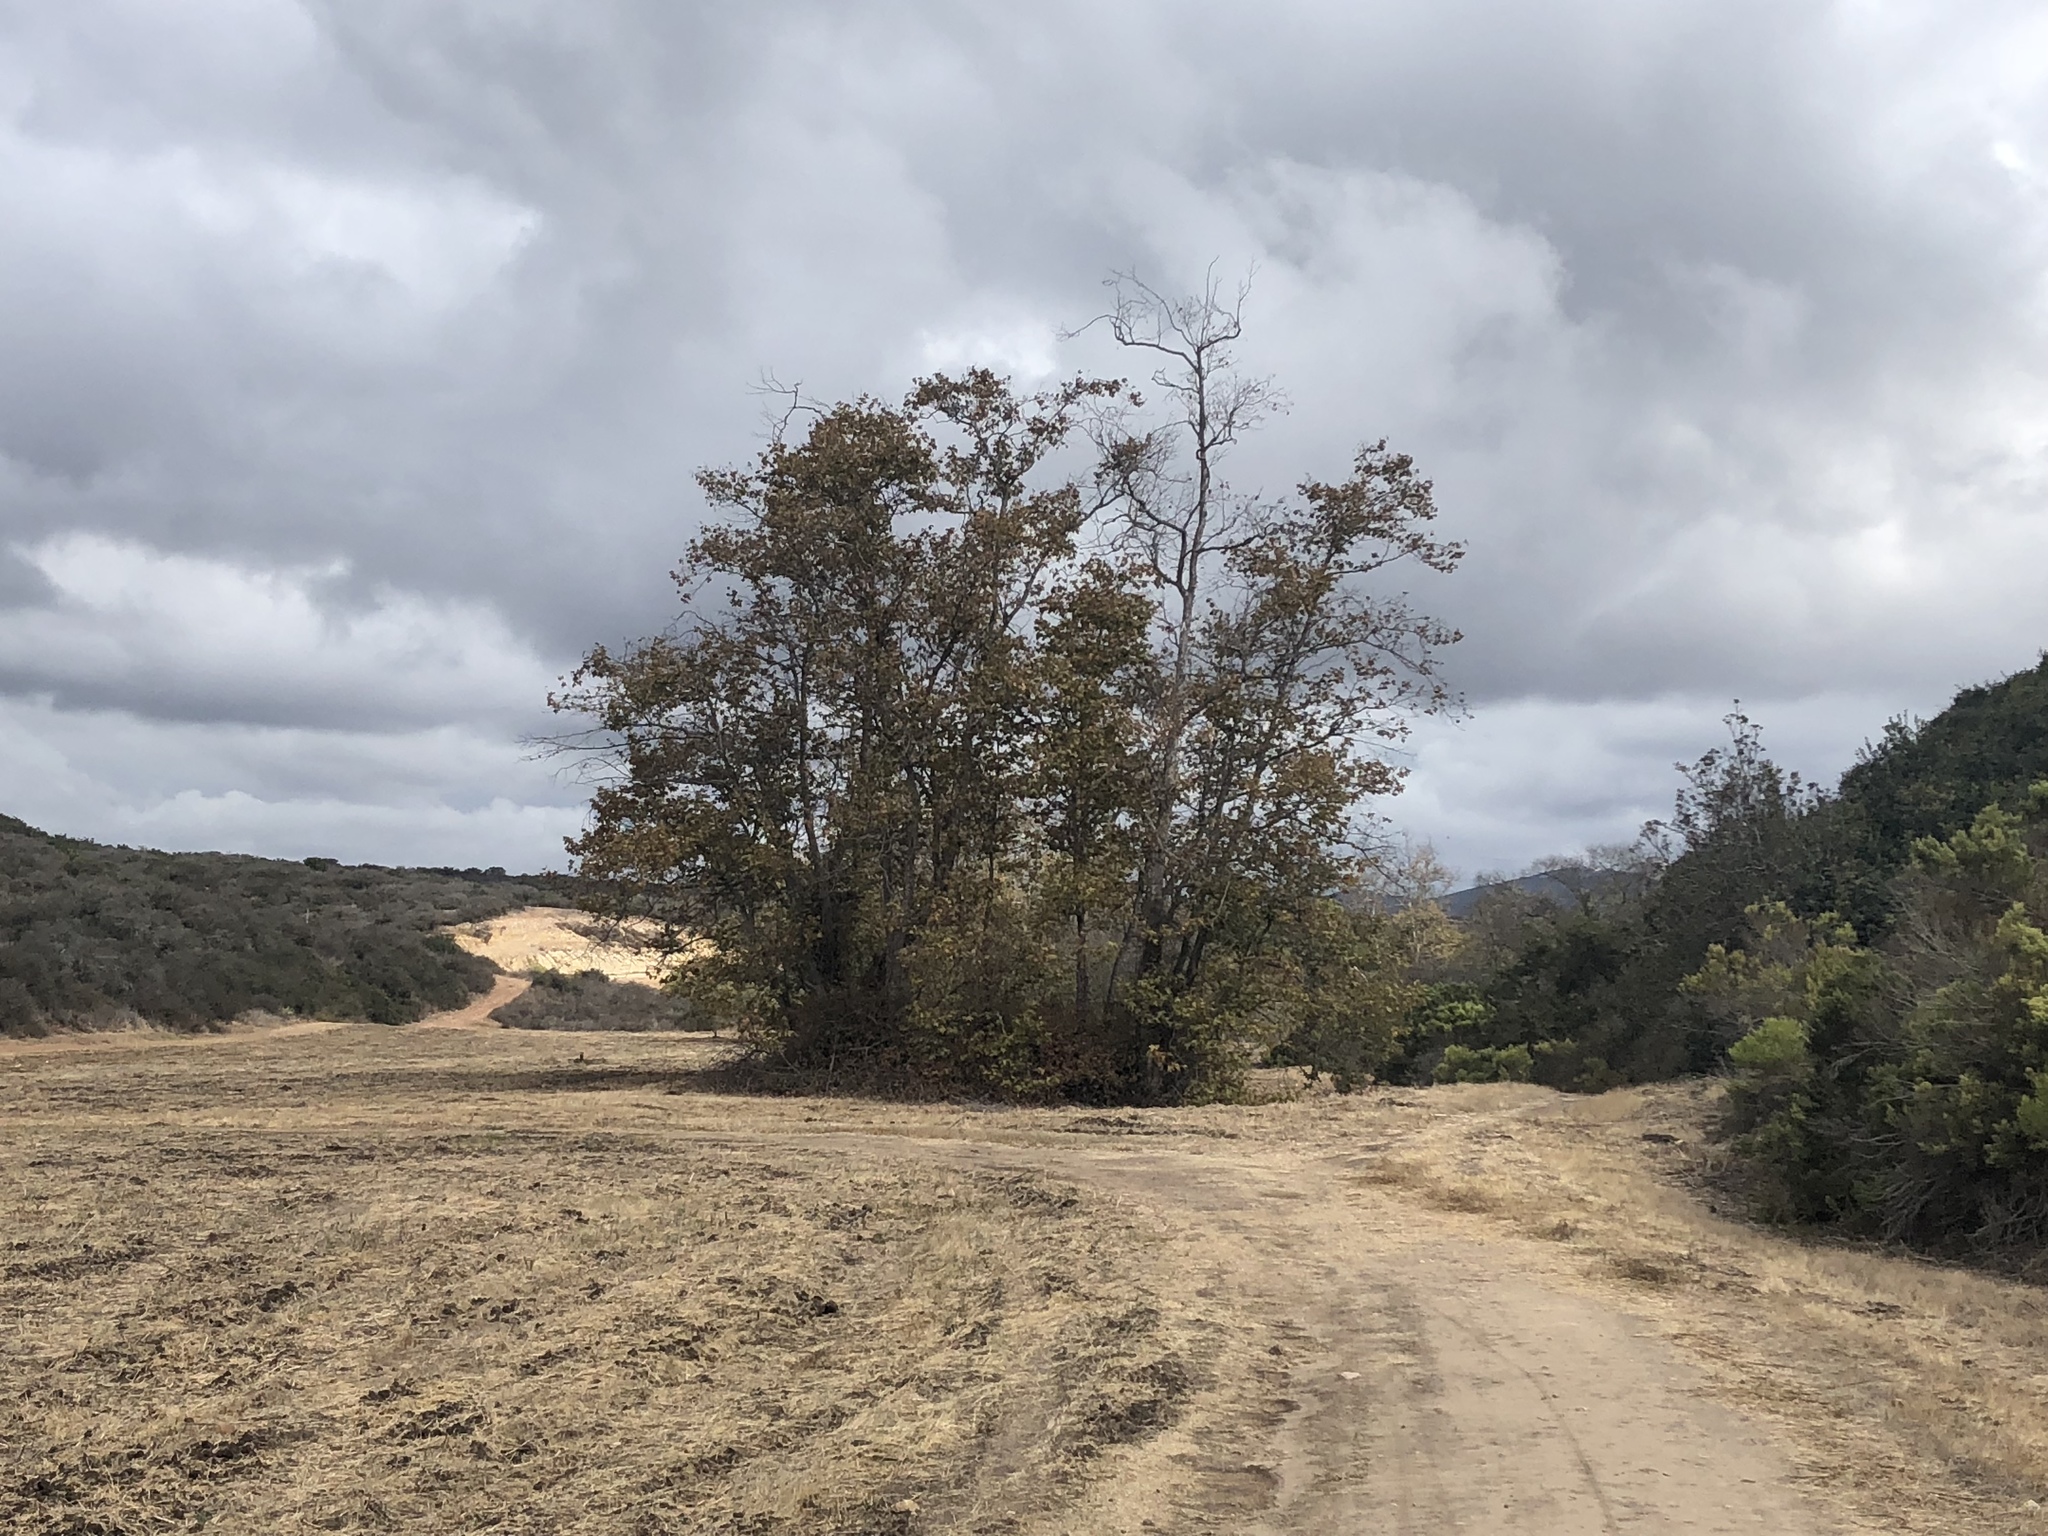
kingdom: Plantae
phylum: Tracheophyta
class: Magnoliopsida
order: Proteales
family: Platanaceae
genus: Platanus
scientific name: Platanus racemosa
